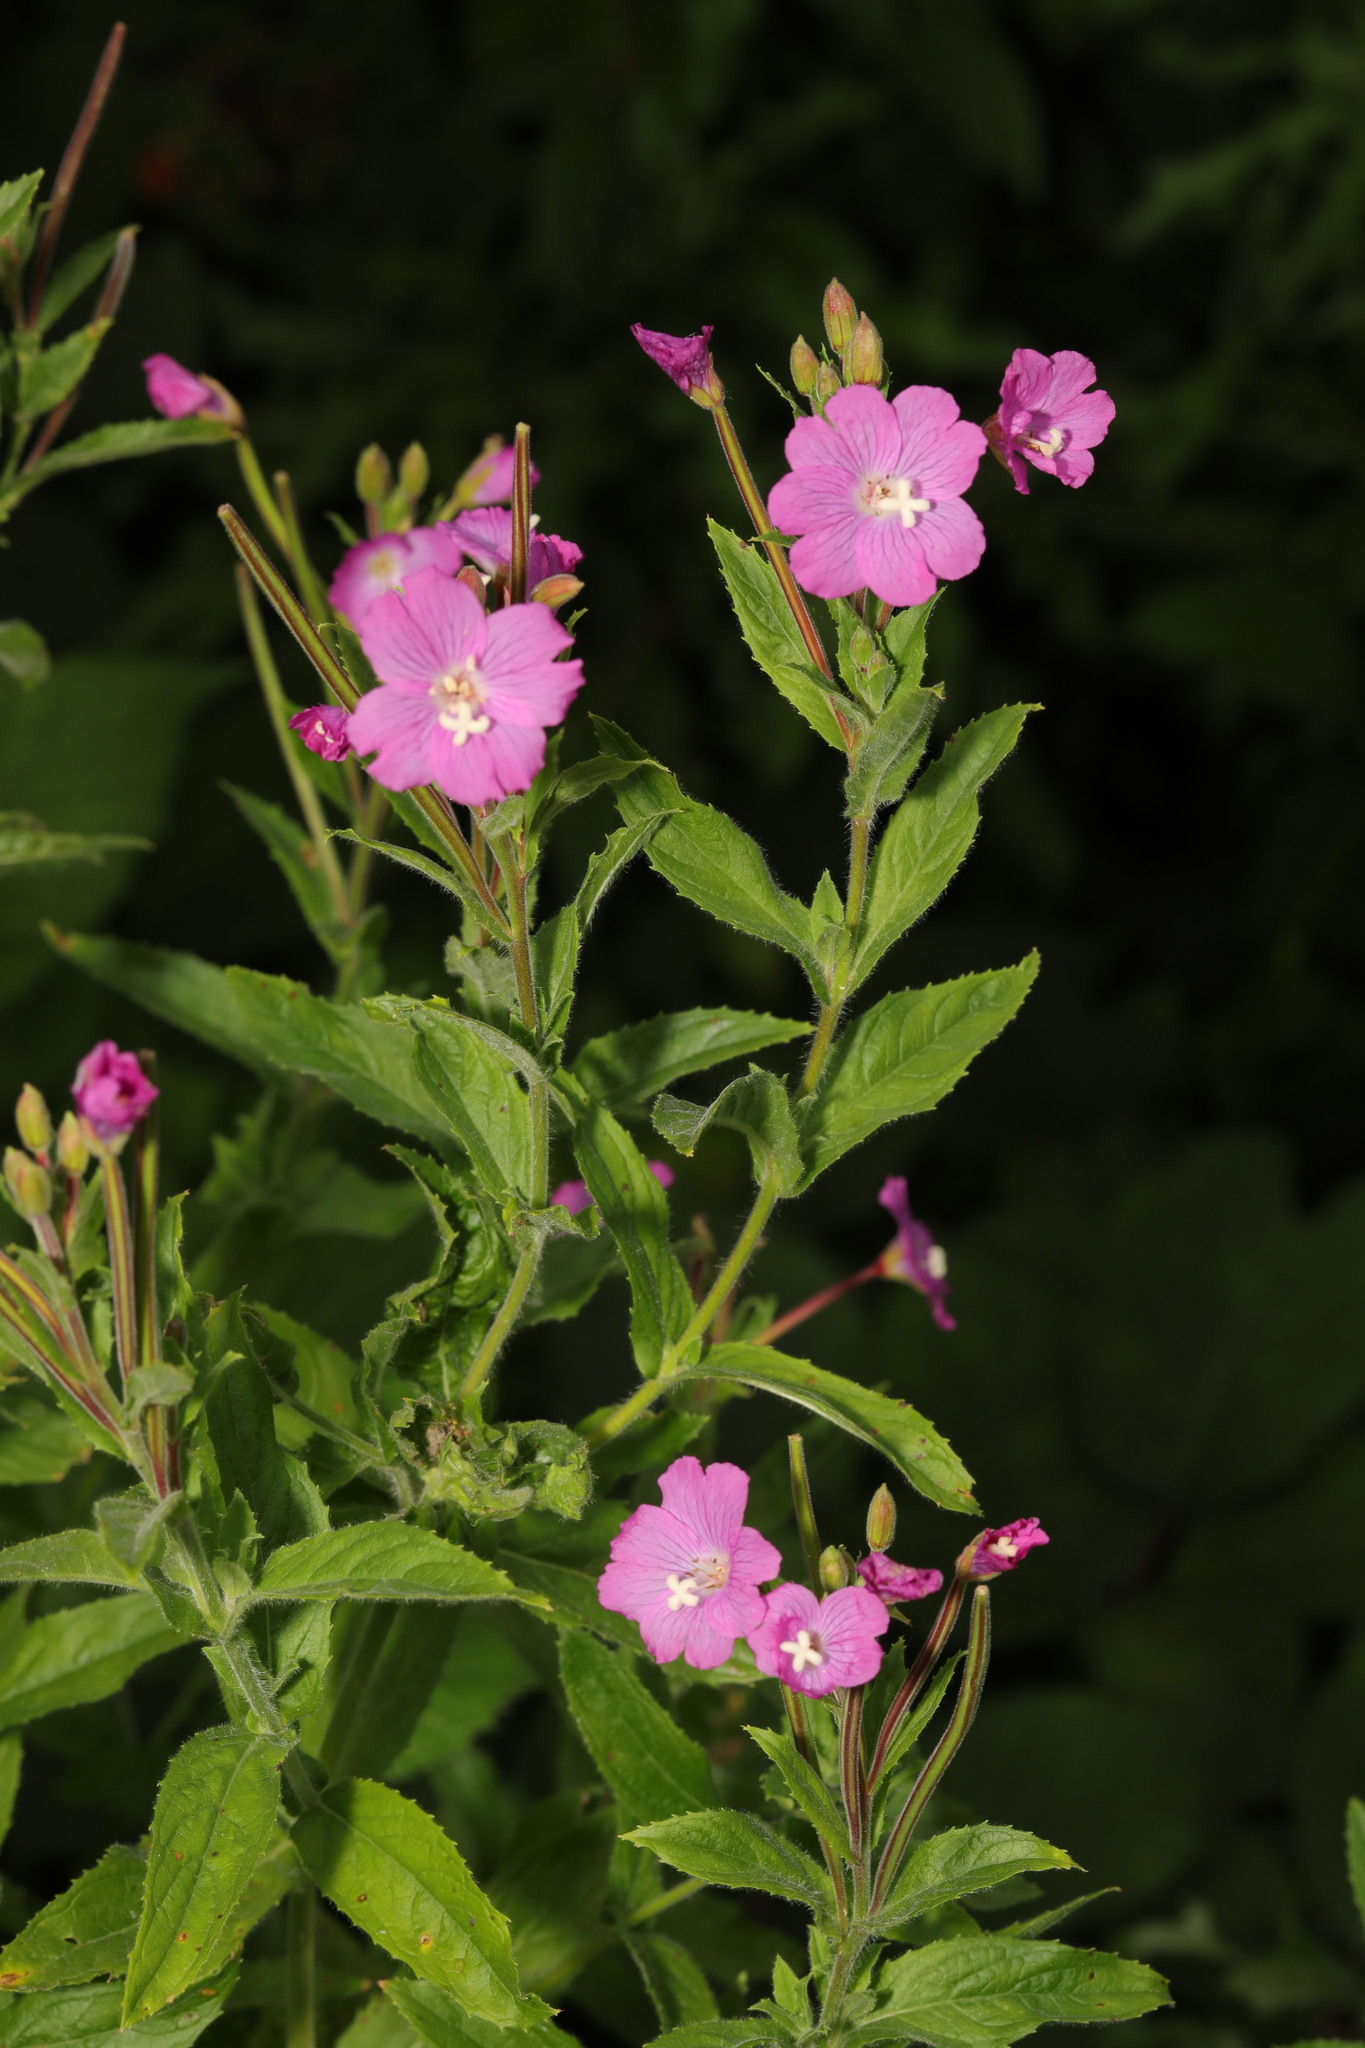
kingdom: Plantae
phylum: Tracheophyta
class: Magnoliopsida
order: Myrtales
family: Onagraceae
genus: Epilobium
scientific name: Epilobium hirsutum
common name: Great willowherb
